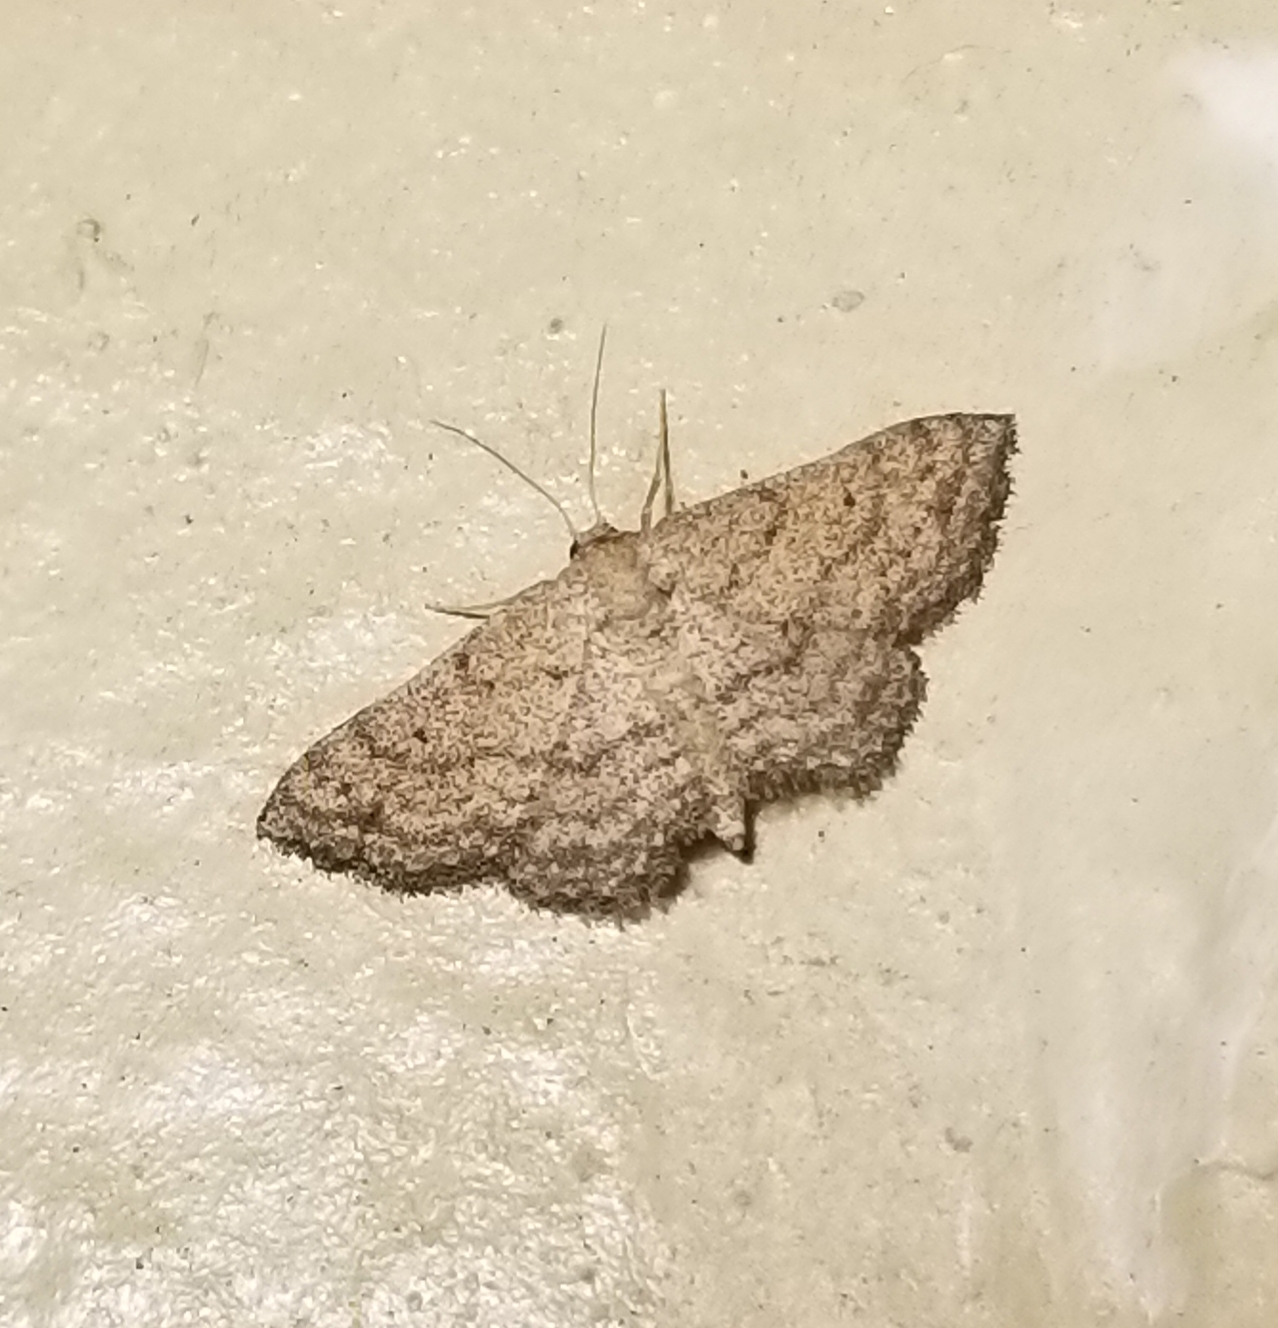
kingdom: Animalia
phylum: Arthropoda
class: Insecta
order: Lepidoptera
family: Geometridae
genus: Lobocleta
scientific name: Lobocleta ossularia
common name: Drab brown wave
